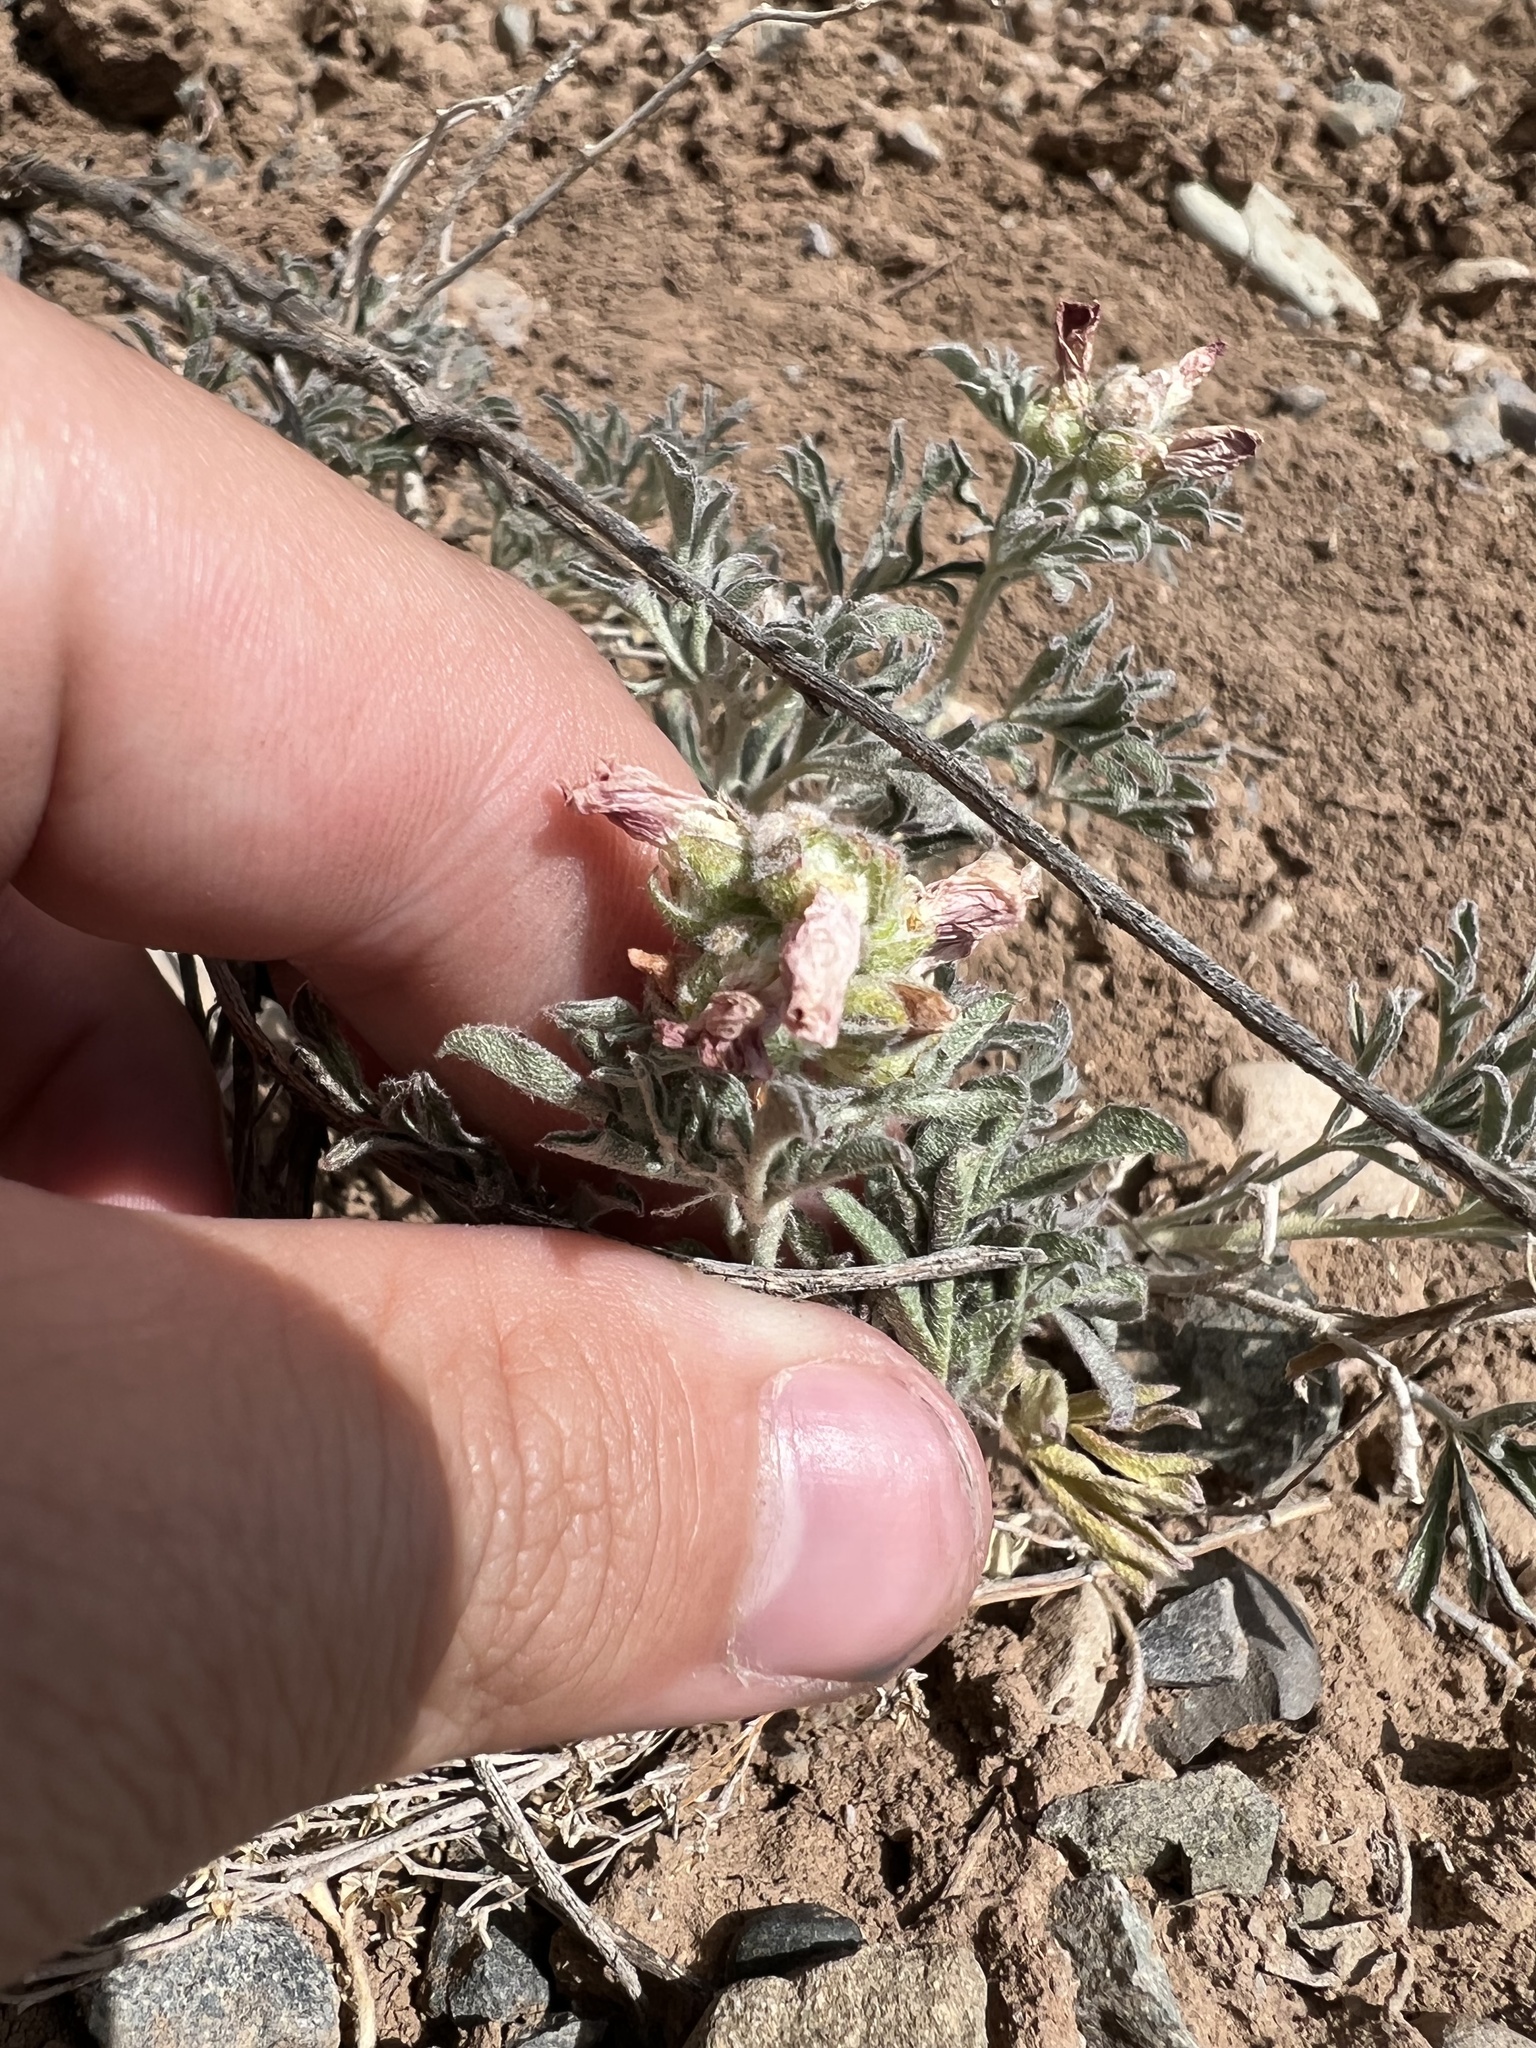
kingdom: Plantae
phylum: Tracheophyta
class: Magnoliopsida
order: Malvales
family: Malvaceae
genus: Sphaeralcea
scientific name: Sphaeralcea coccinea
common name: Moss-rose
